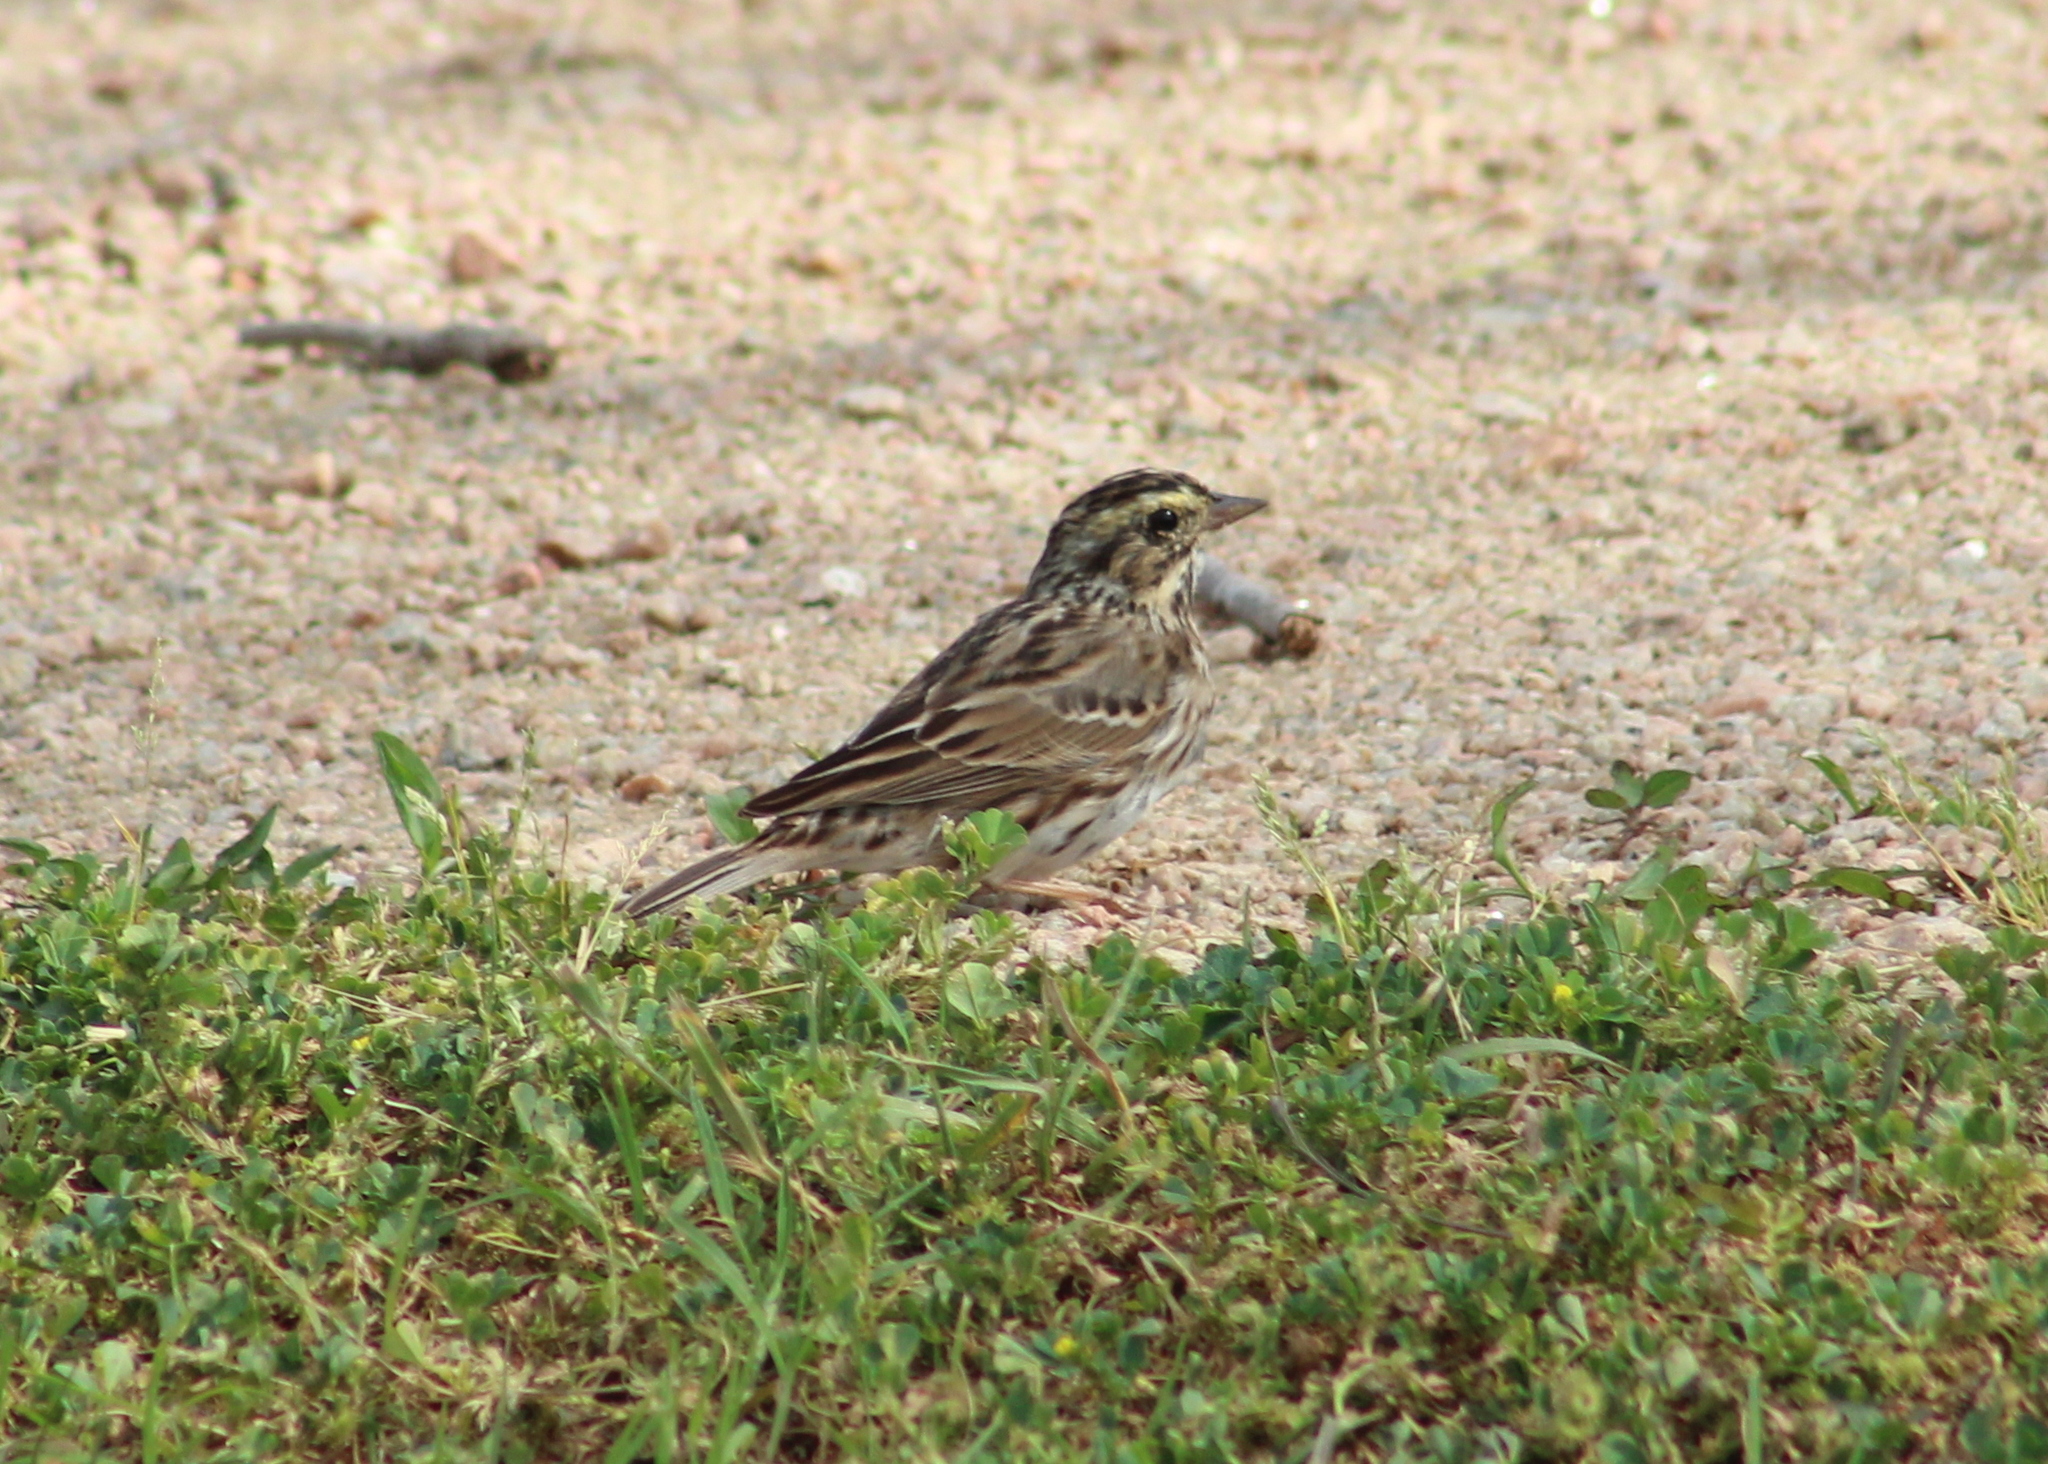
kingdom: Animalia
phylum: Chordata
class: Aves
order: Passeriformes
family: Passerellidae
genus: Passerculus
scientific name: Passerculus sandwichensis
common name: Savannah sparrow
